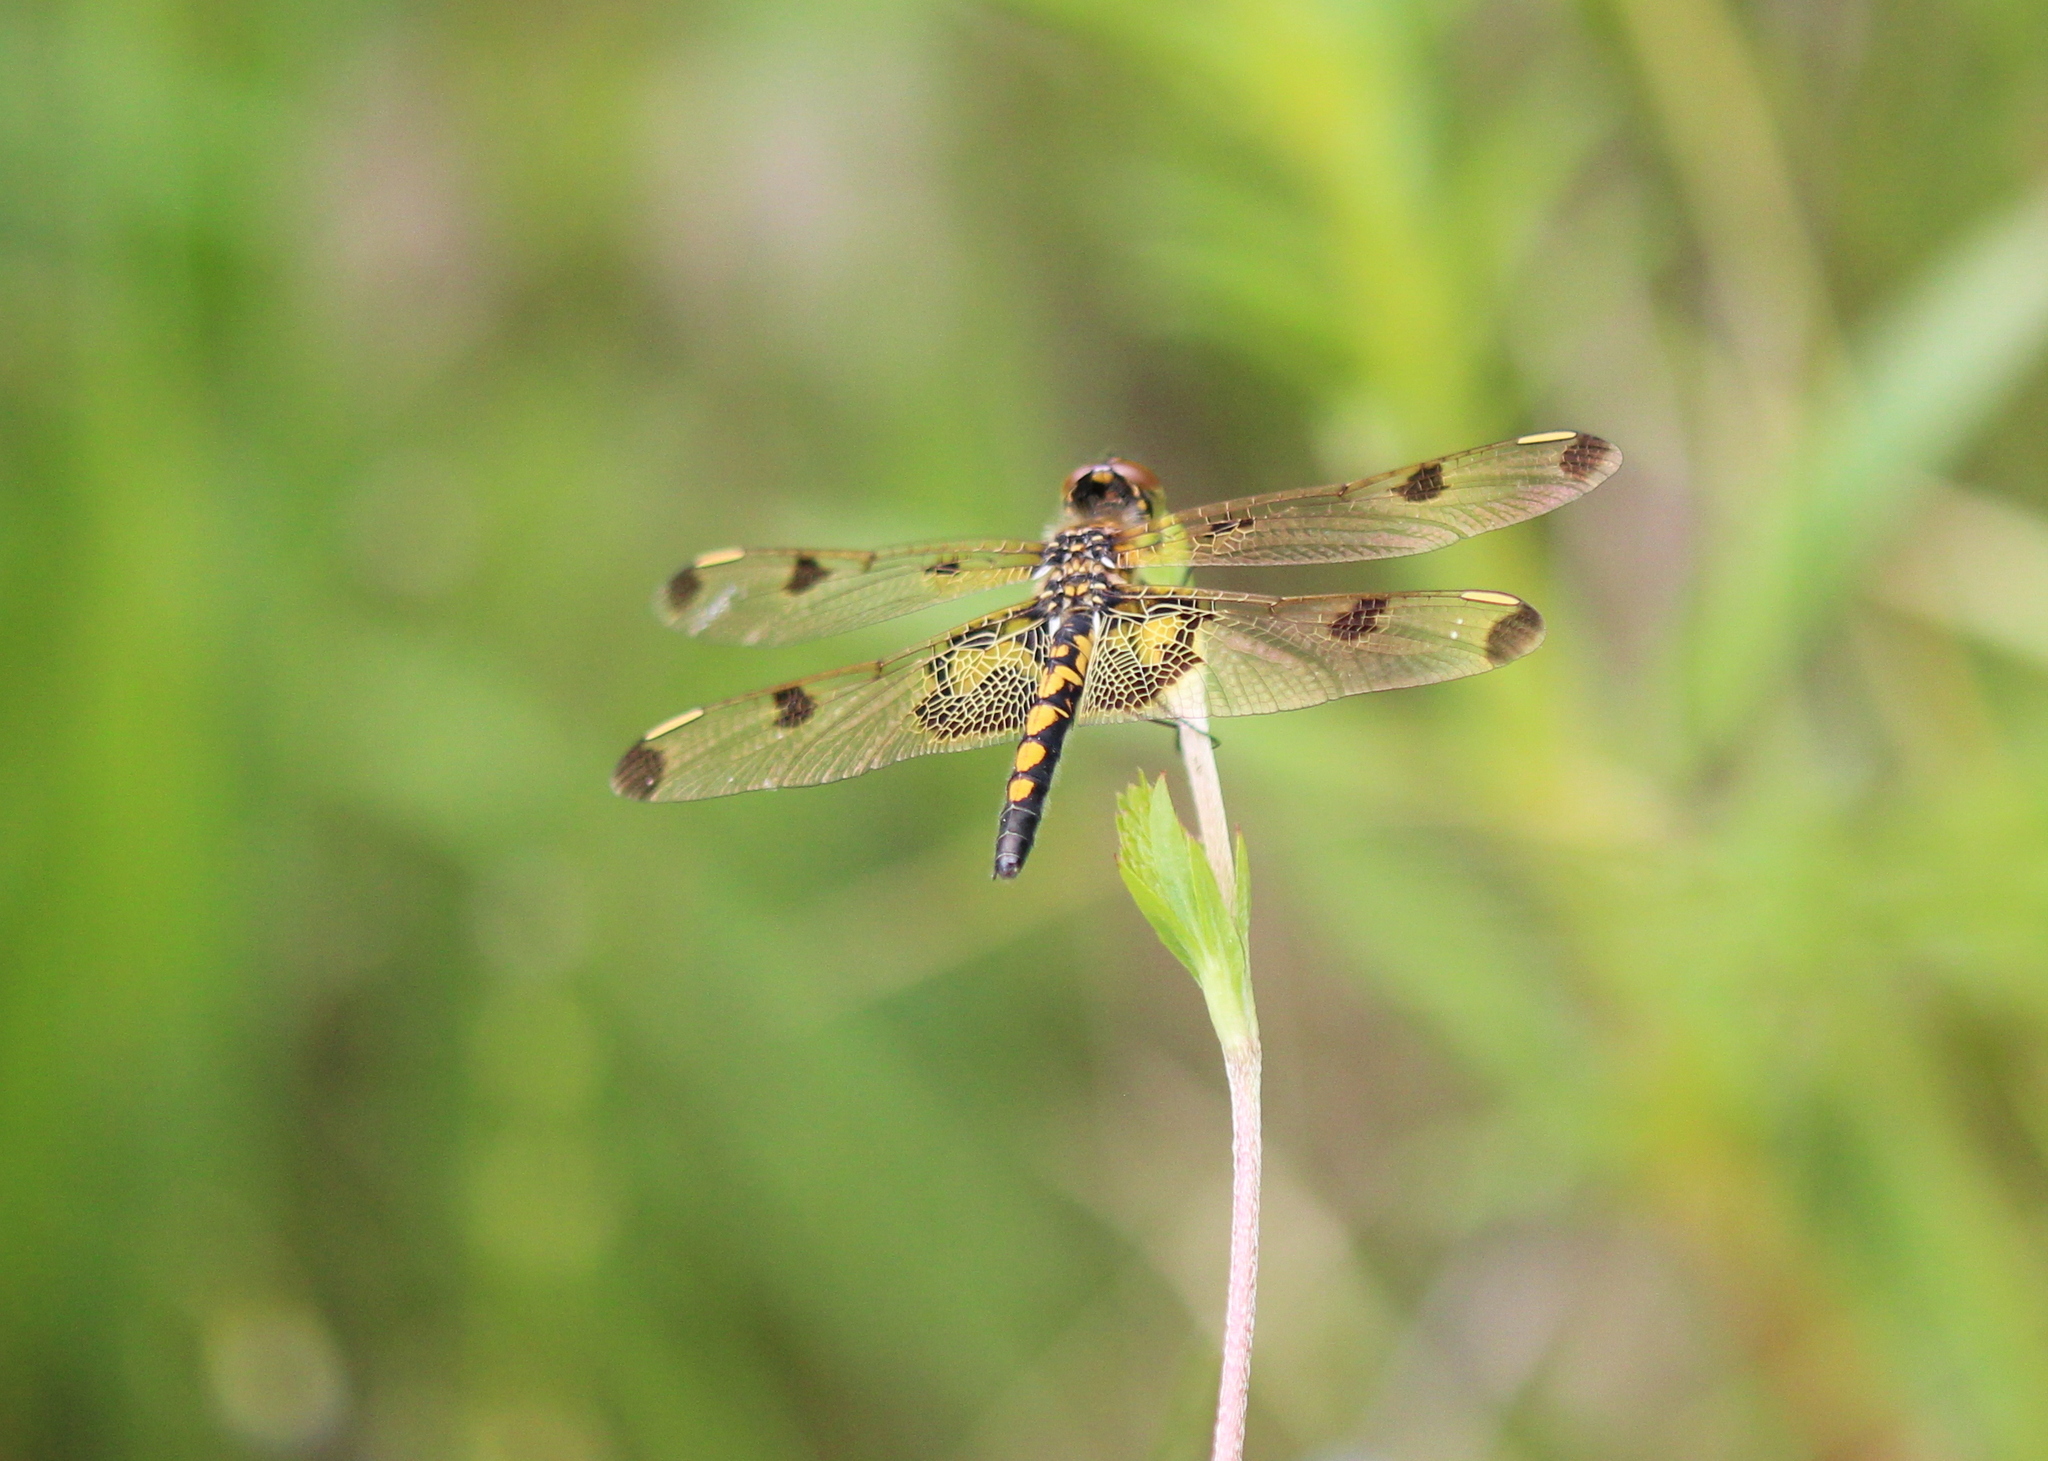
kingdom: Animalia
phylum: Arthropoda
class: Insecta
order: Odonata
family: Libellulidae
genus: Celithemis
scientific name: Celithemis elisa
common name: Calico pennant
